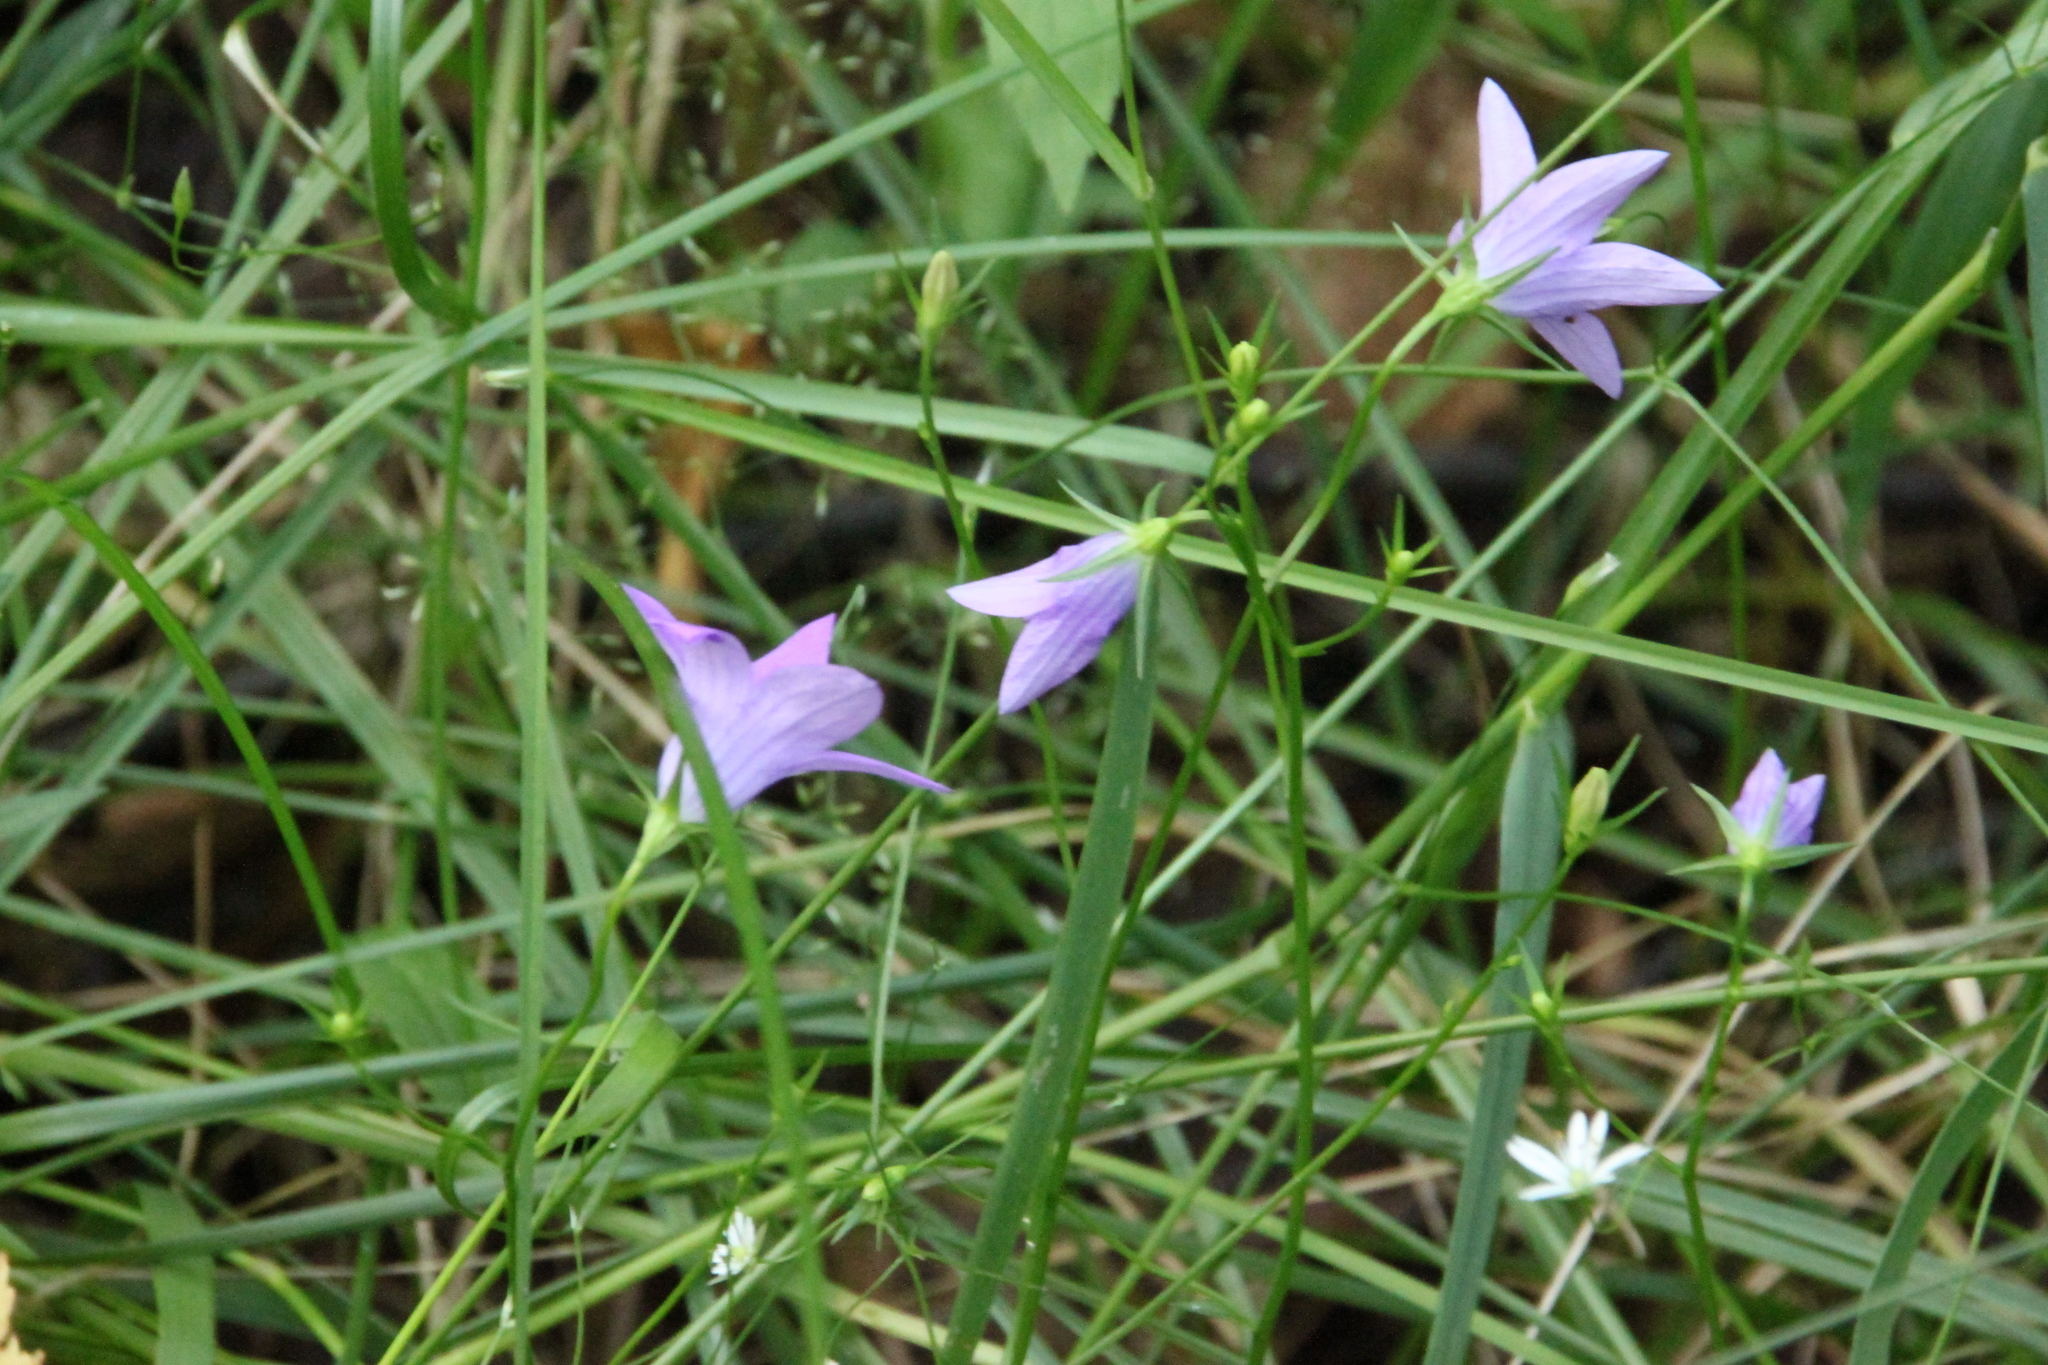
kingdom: Plantae
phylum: Tracheophyta
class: Magnoliopsida
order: Asterales
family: Campanulaceae
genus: Campanula
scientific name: Campanula patula
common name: Spreading bellflower
